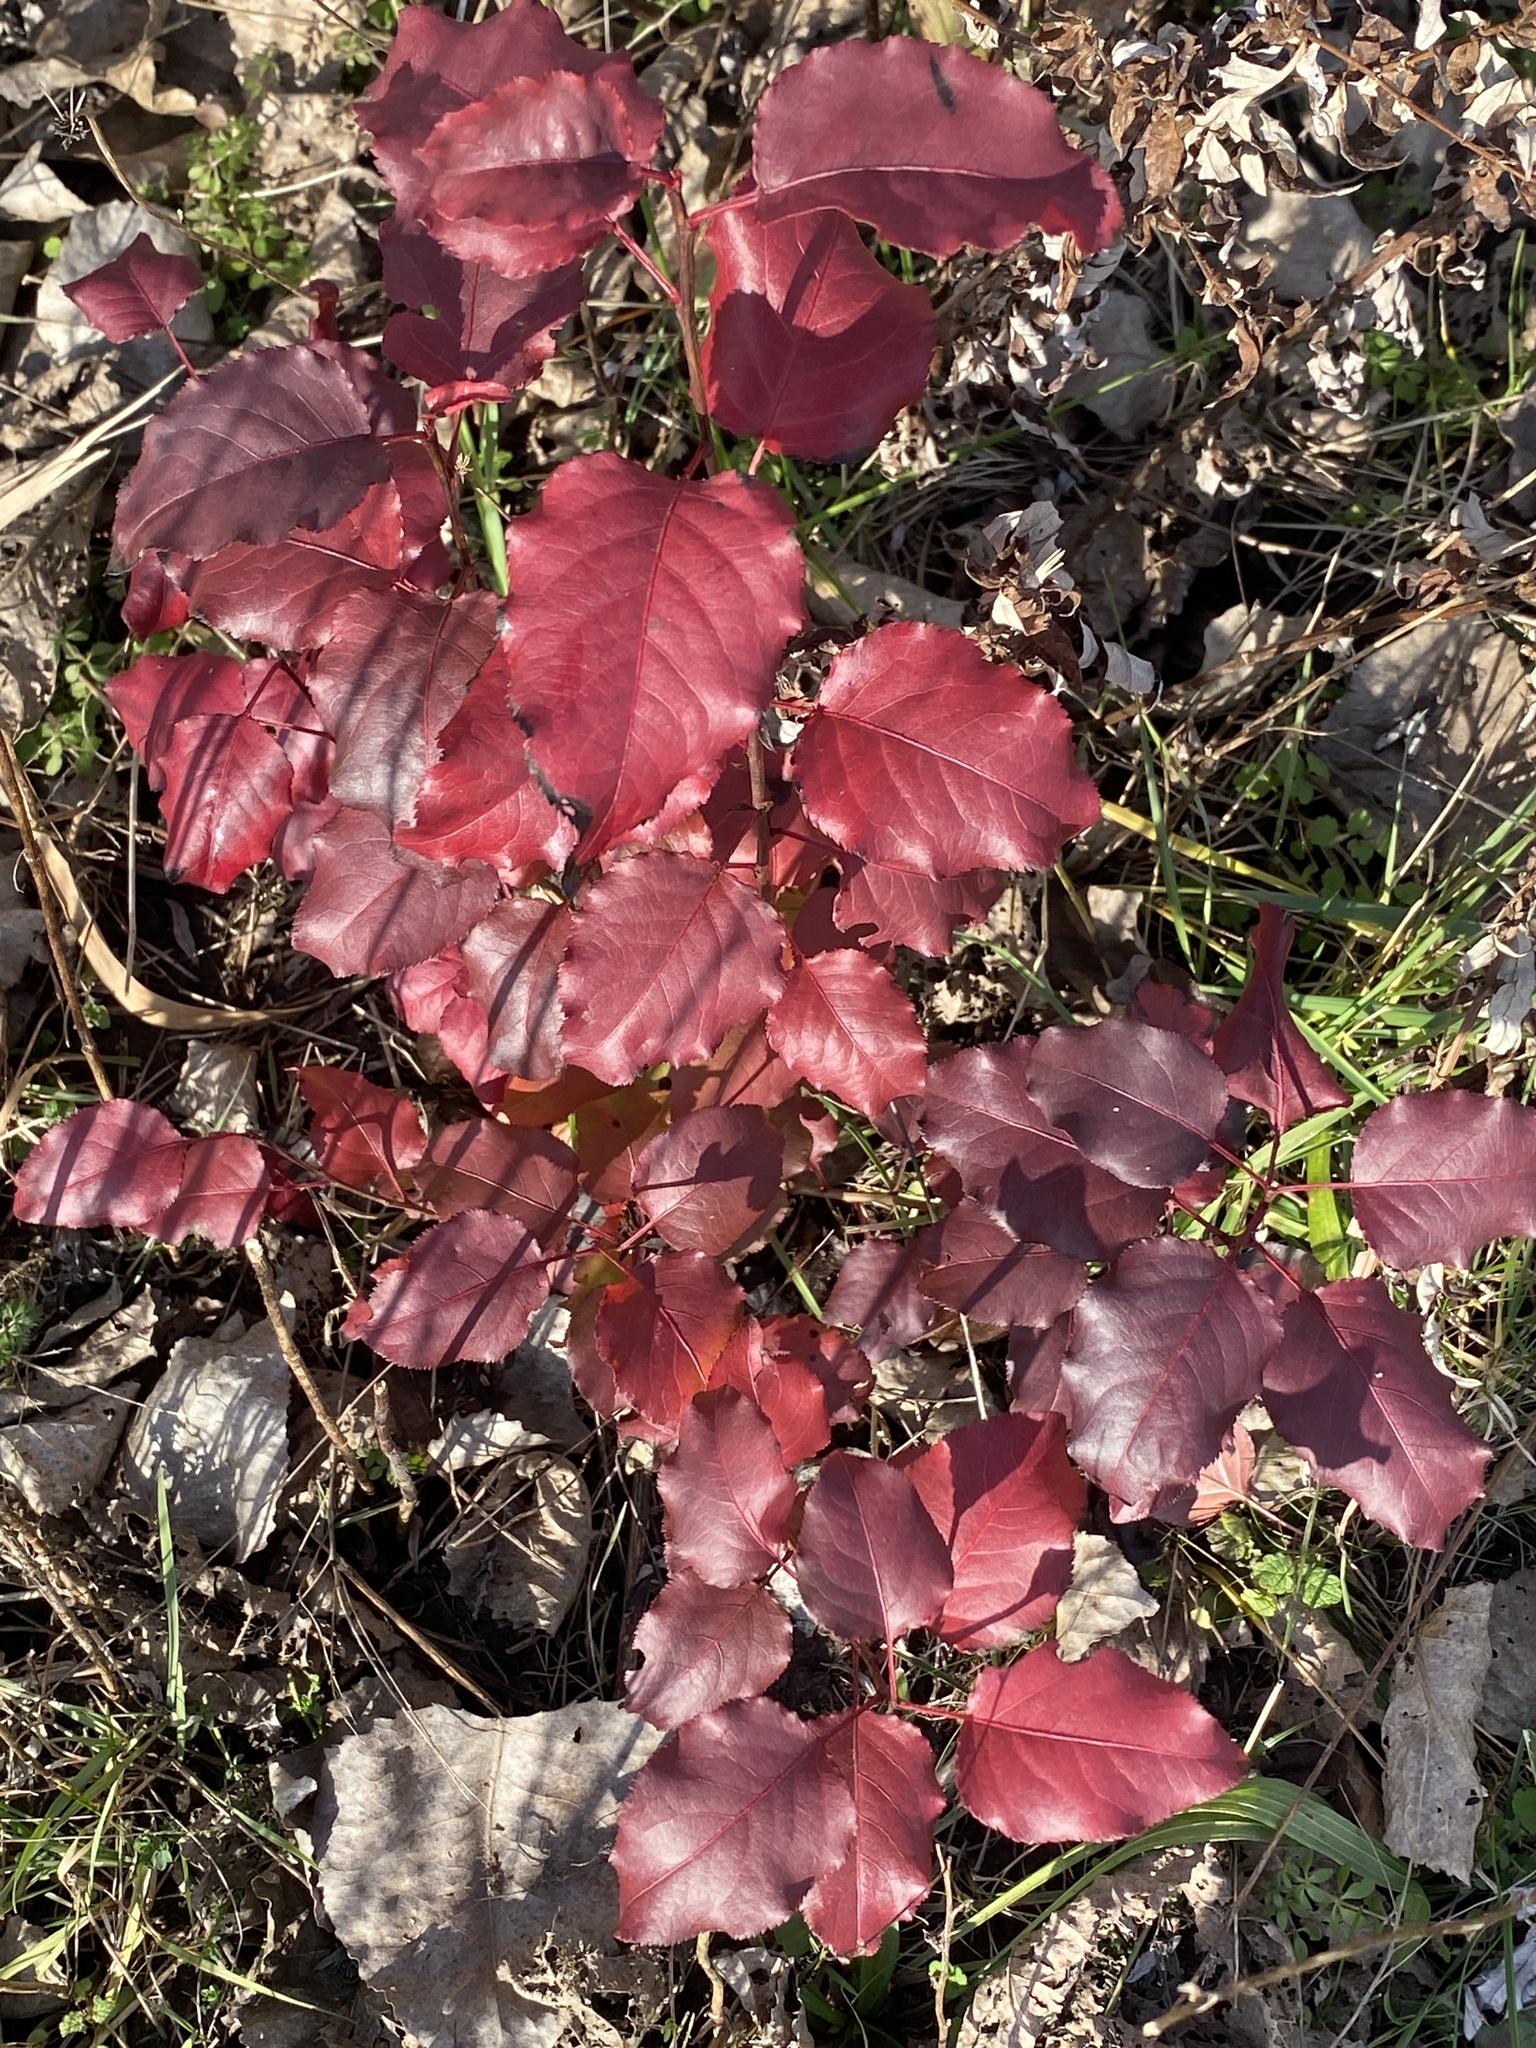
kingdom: Plantae
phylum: Tracheophyta
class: Magnoliopsida
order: Rosales
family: Rosaceae
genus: Pyrus
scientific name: Pyrus calleryana
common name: Callery pear
